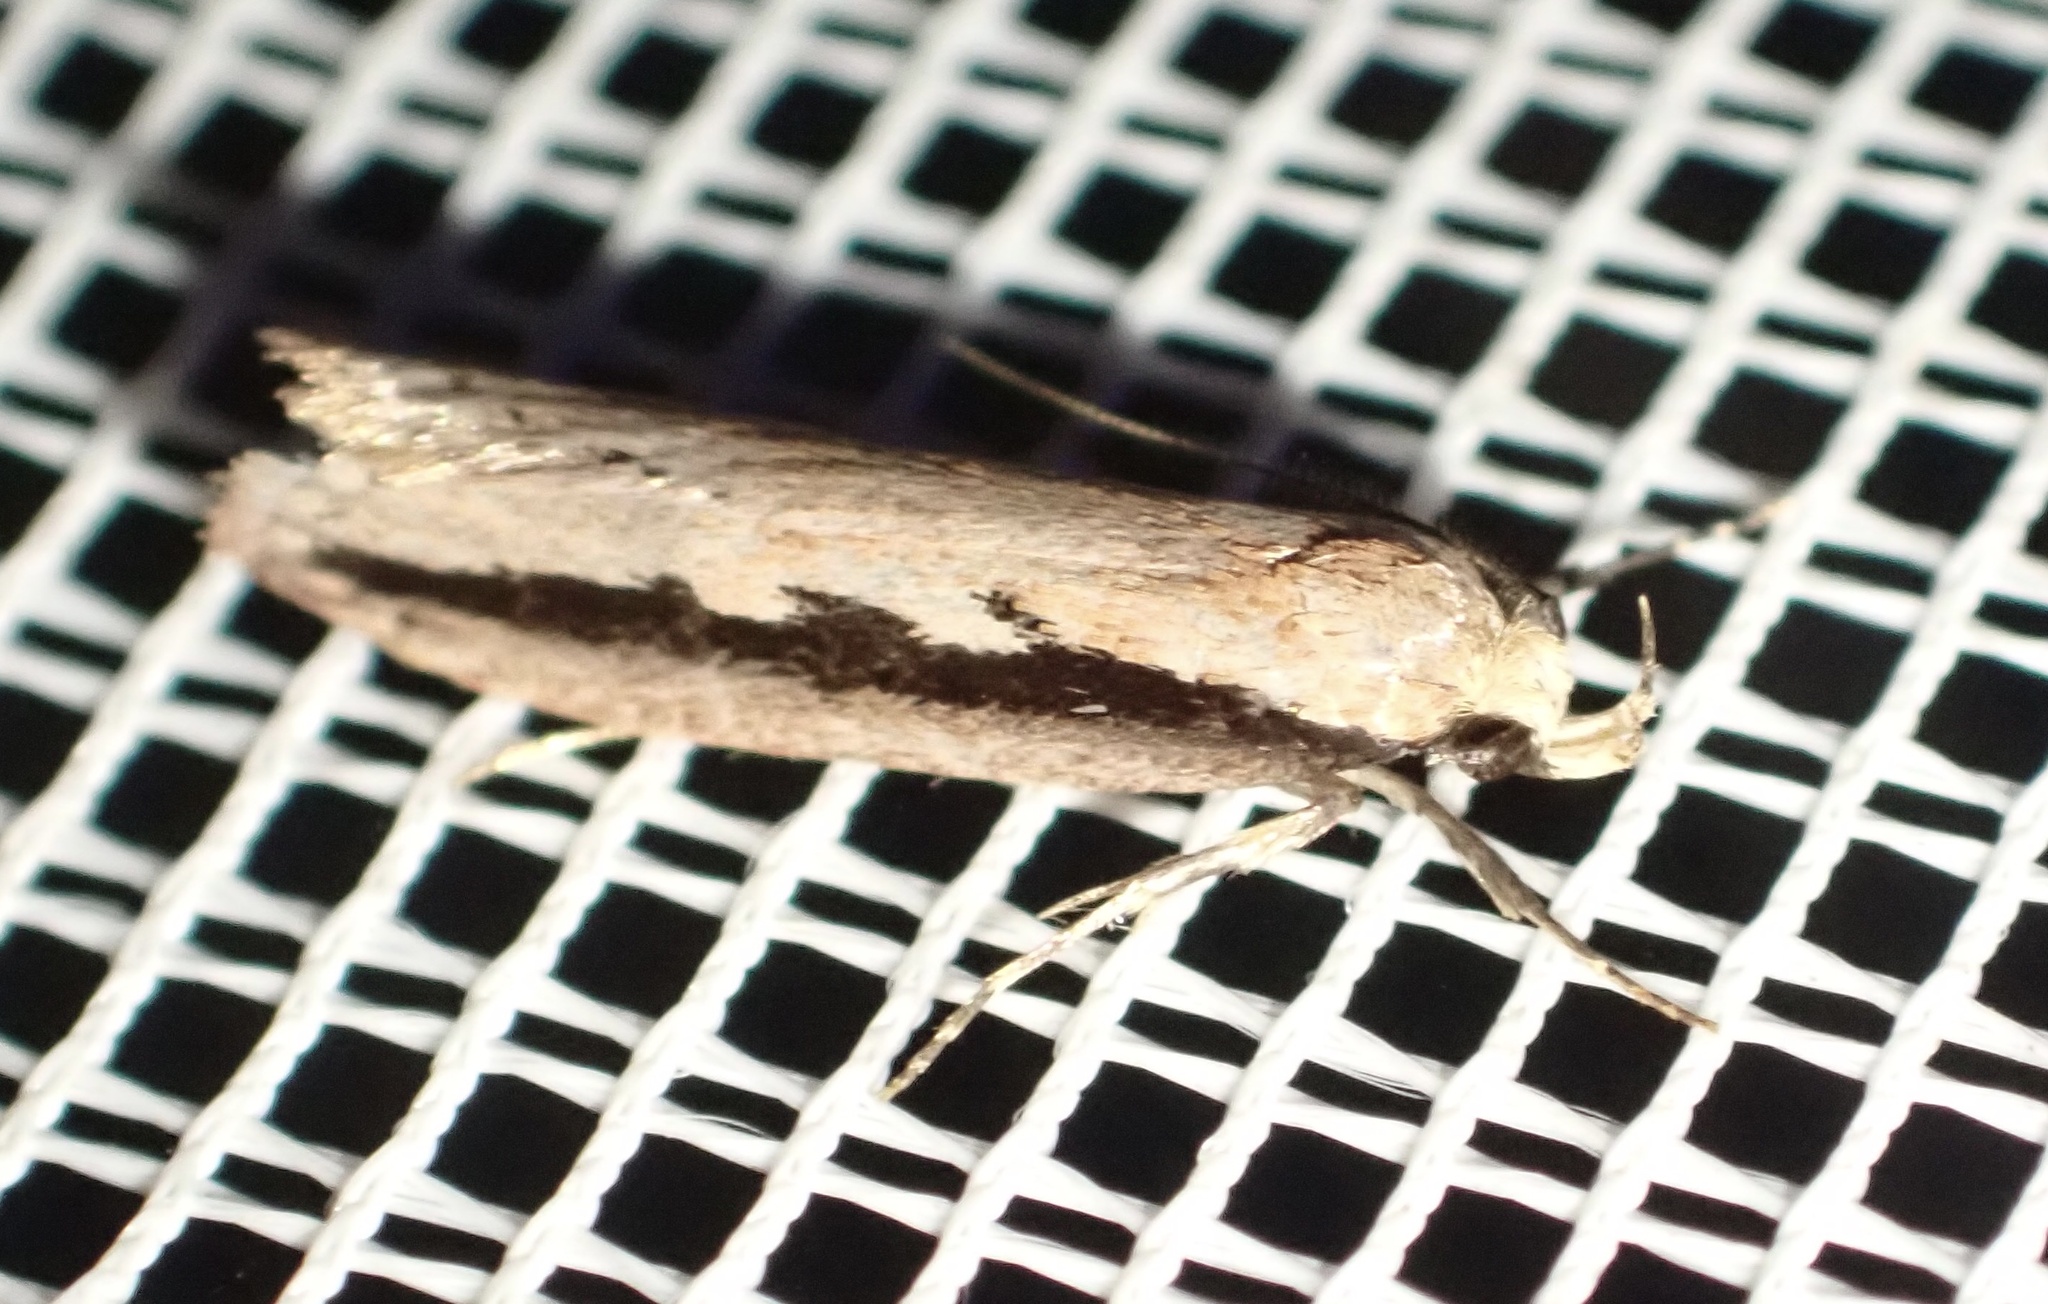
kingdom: Animalia
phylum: Arthropoda
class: Insecta
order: Lepidoptera
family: Oecophoridae
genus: Leptocroca
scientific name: Leptocroca sanguinolenta
